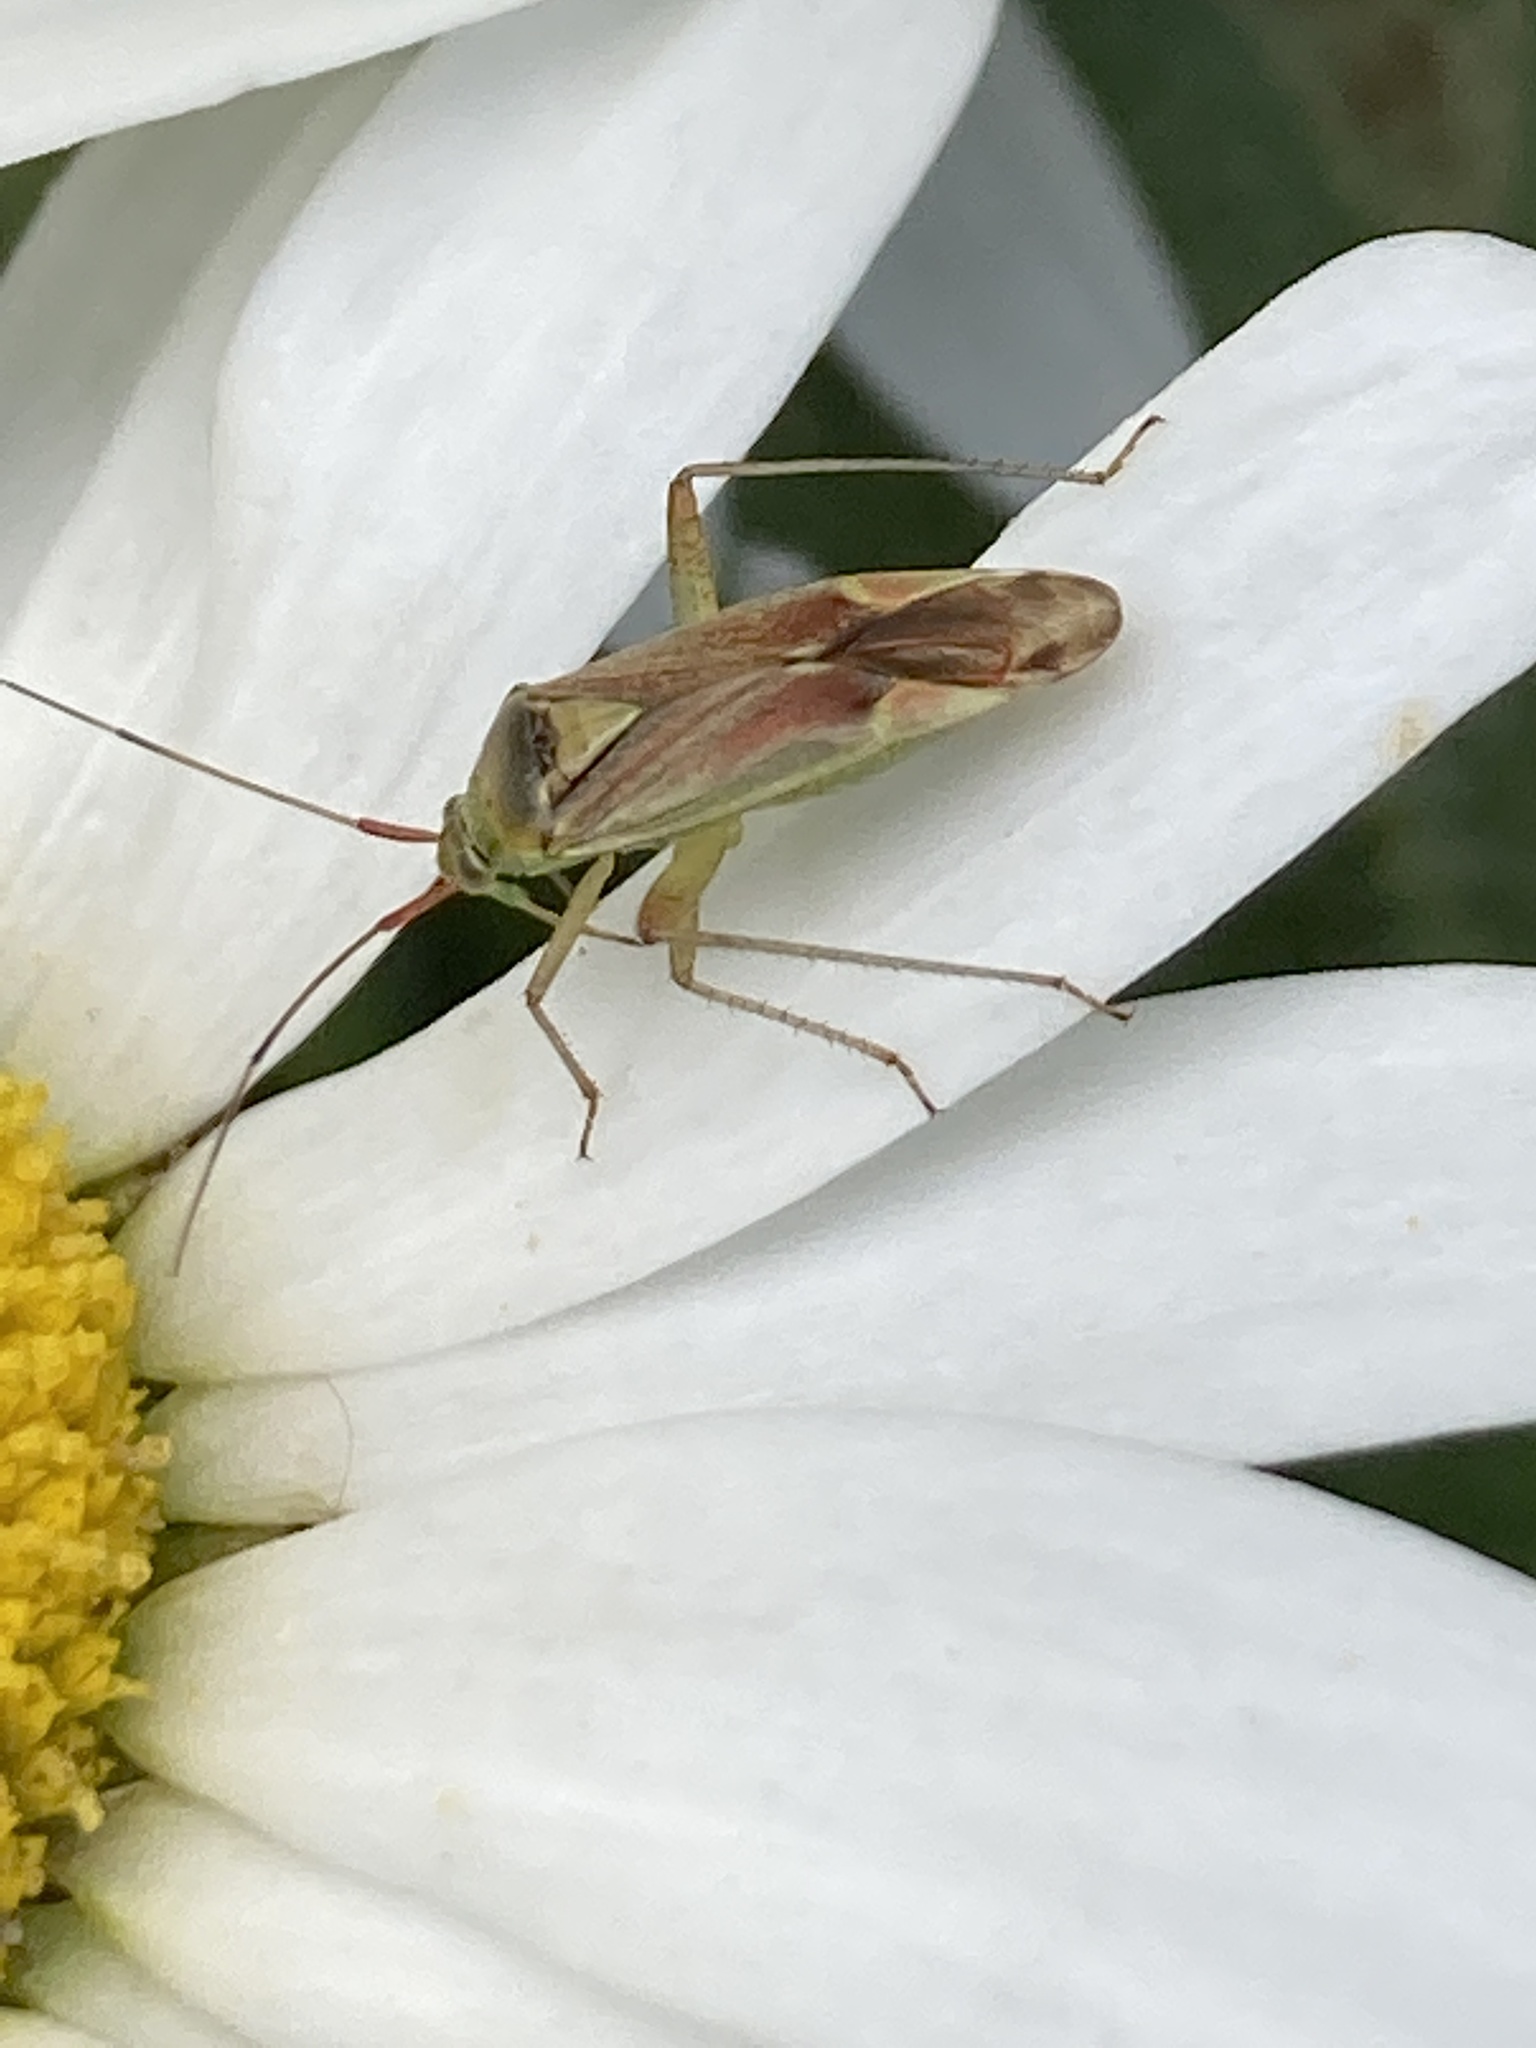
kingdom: Animalia
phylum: Arthropoda
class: Insecta
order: Hemiptera
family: Miridae
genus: Closterotomus
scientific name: Closterotomus trivialis
